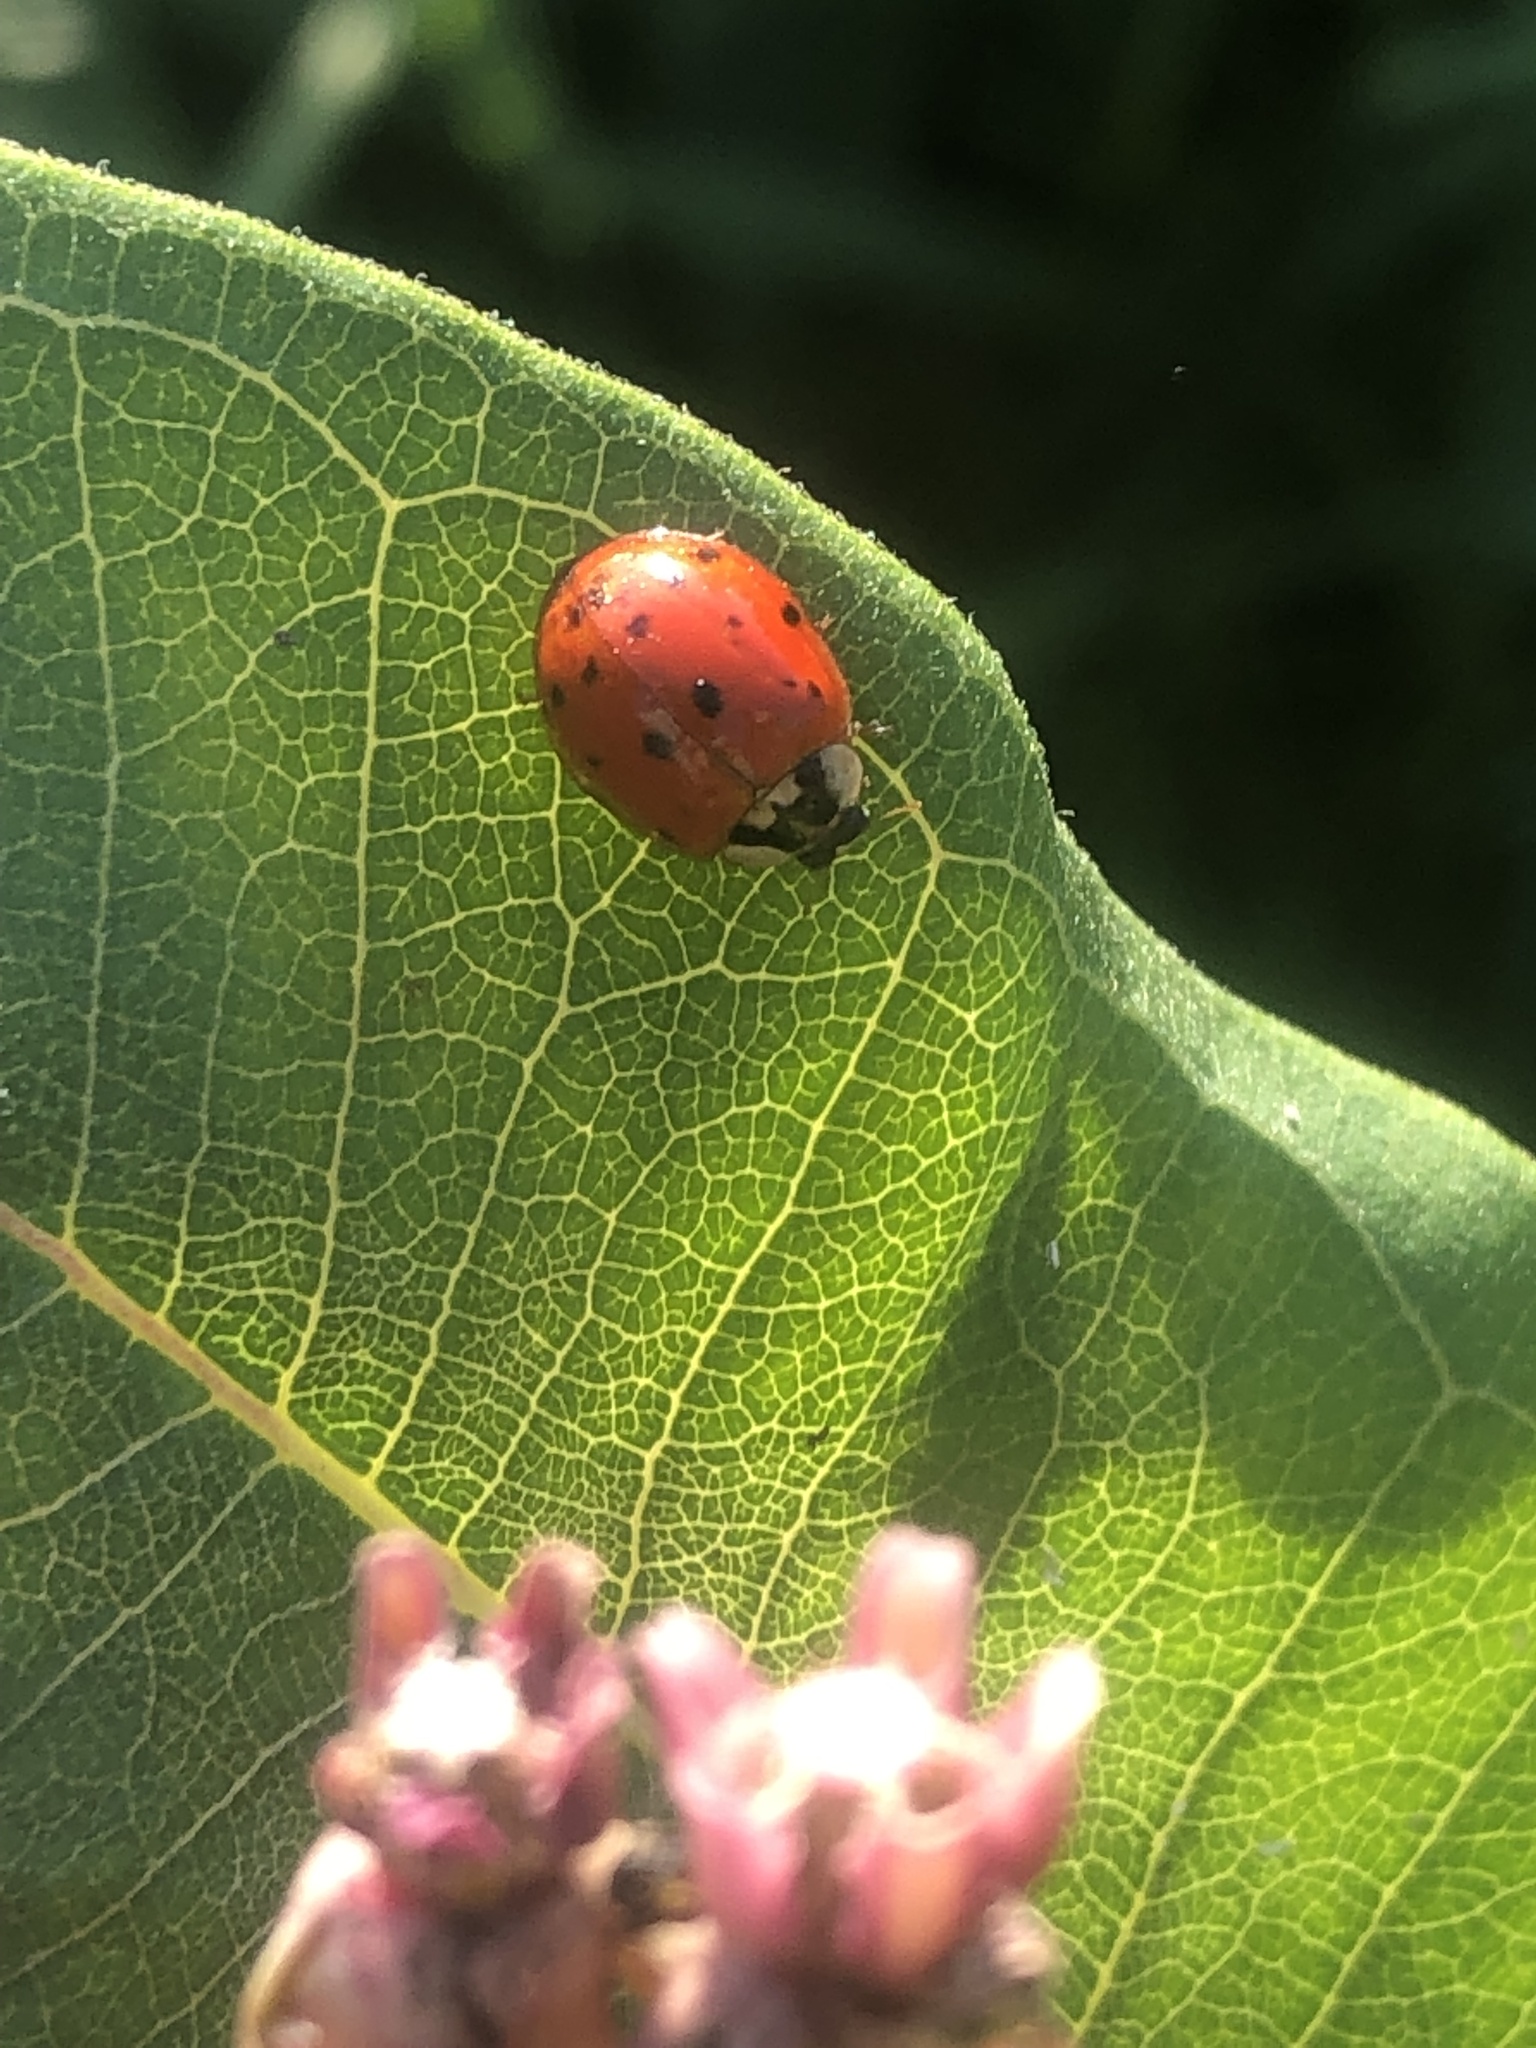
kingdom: Animalia
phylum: Arthropoda
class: Insecta
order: Coleoptera
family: Coccinellidae
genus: Harmonia
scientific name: Harmonia axyridis
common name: Harlequin ladybird
